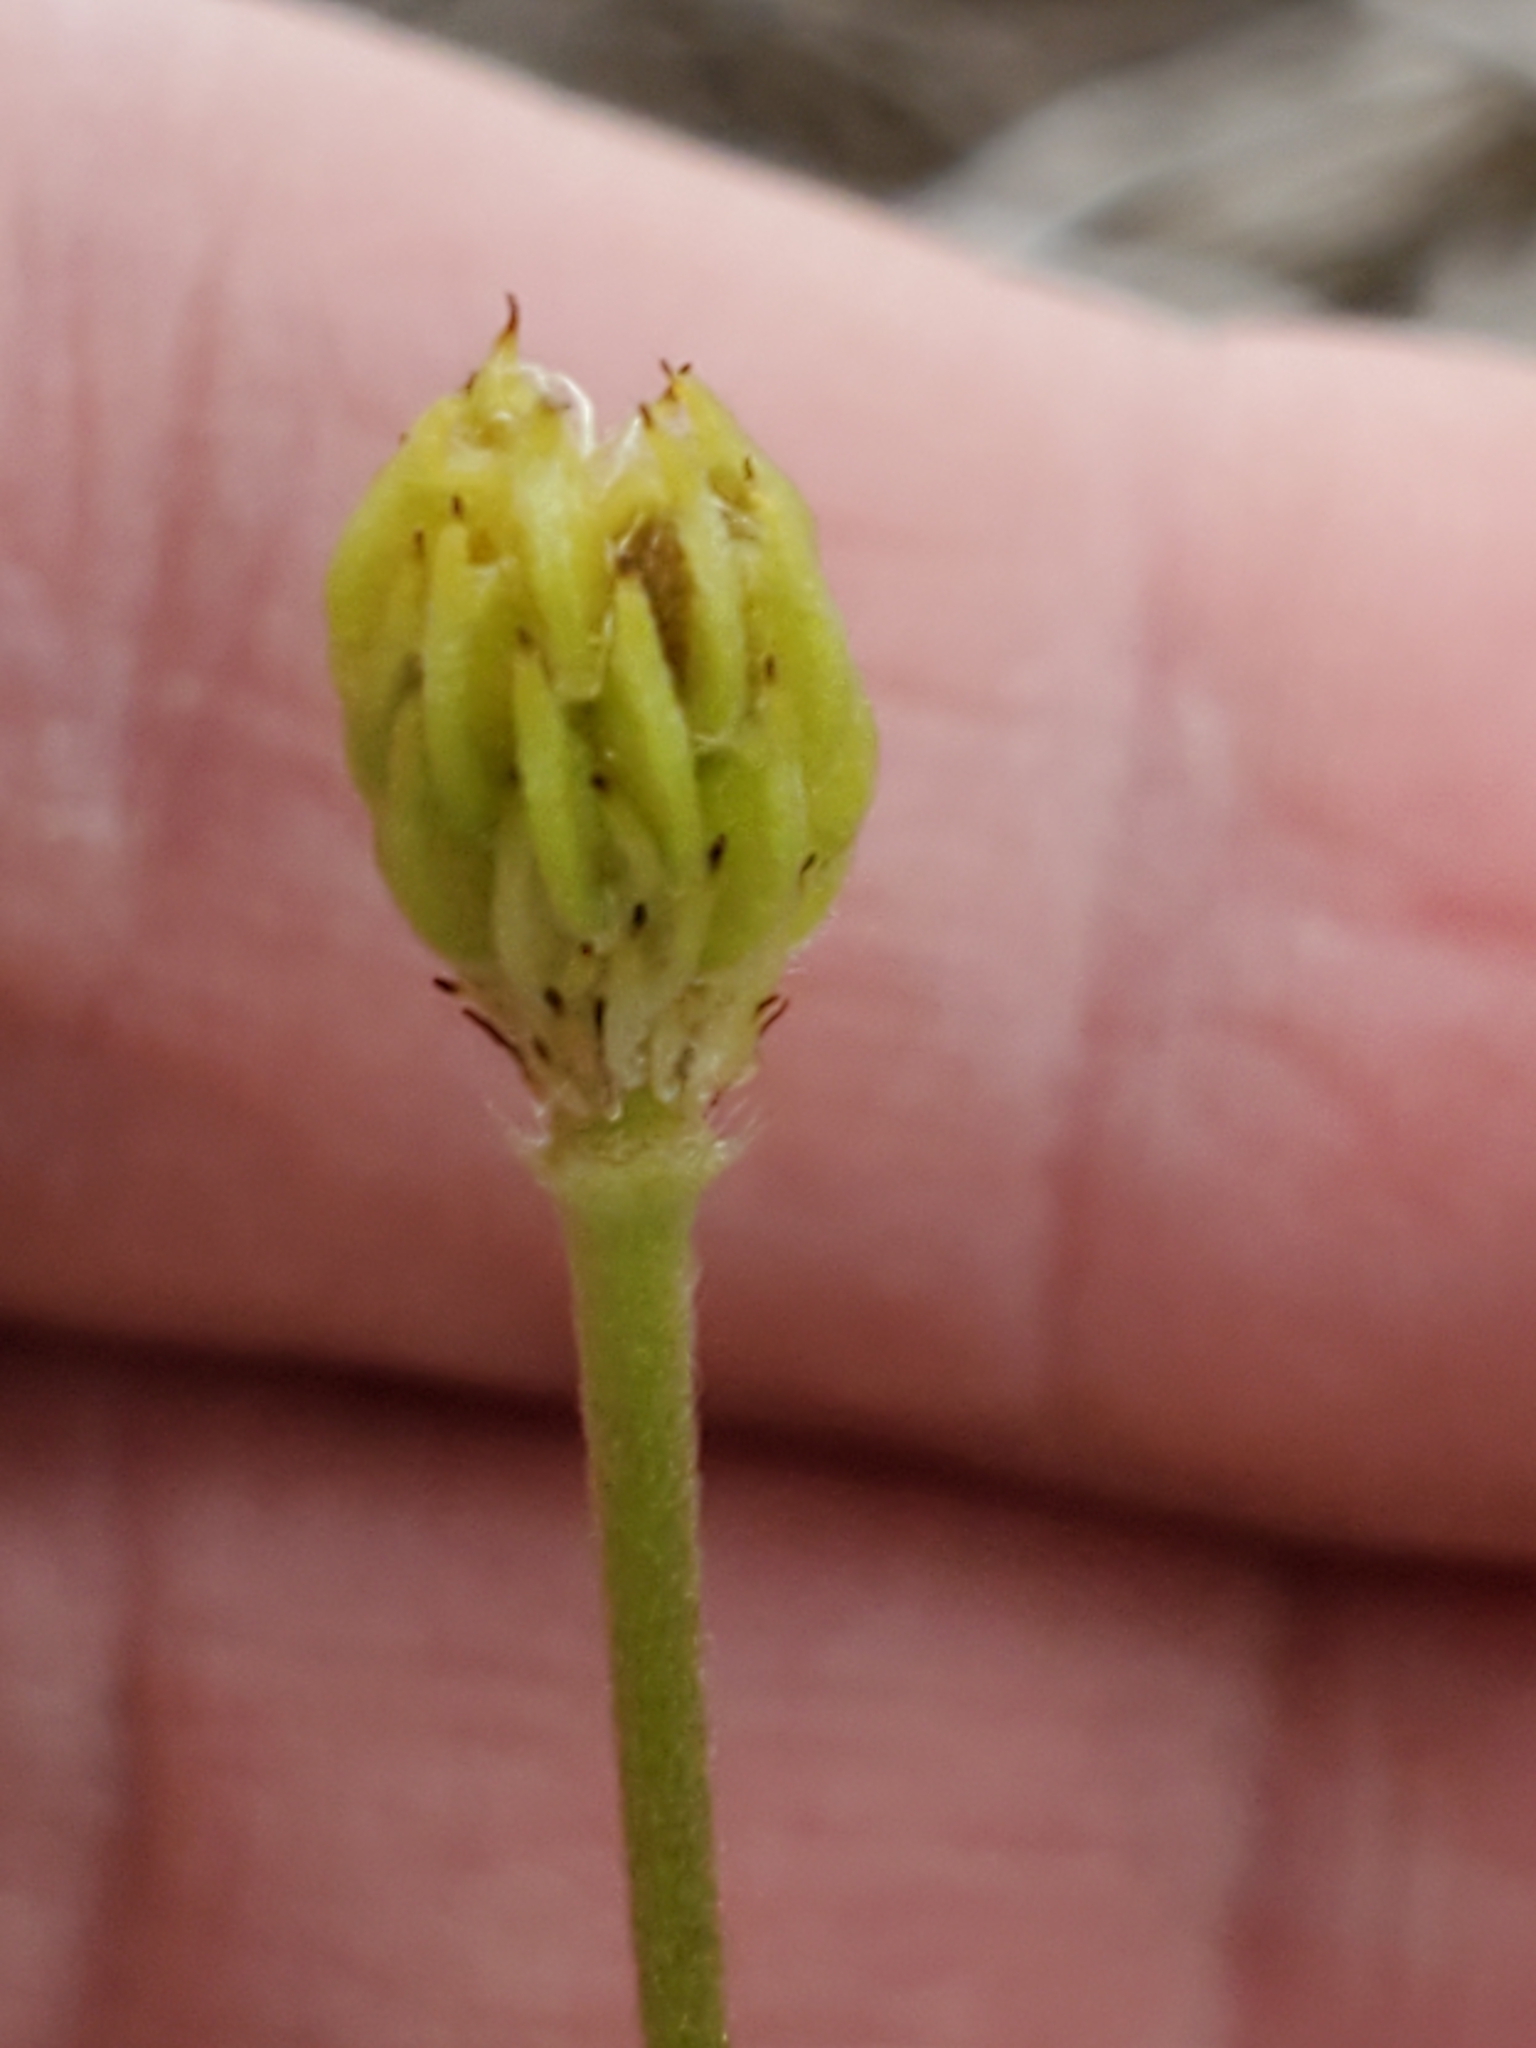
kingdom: Plantae
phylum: Tracheophyta
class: Magnoliopsida
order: Ranunculales
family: Ranunculaceae
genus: Anemone
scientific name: Anemone edwardsiana
